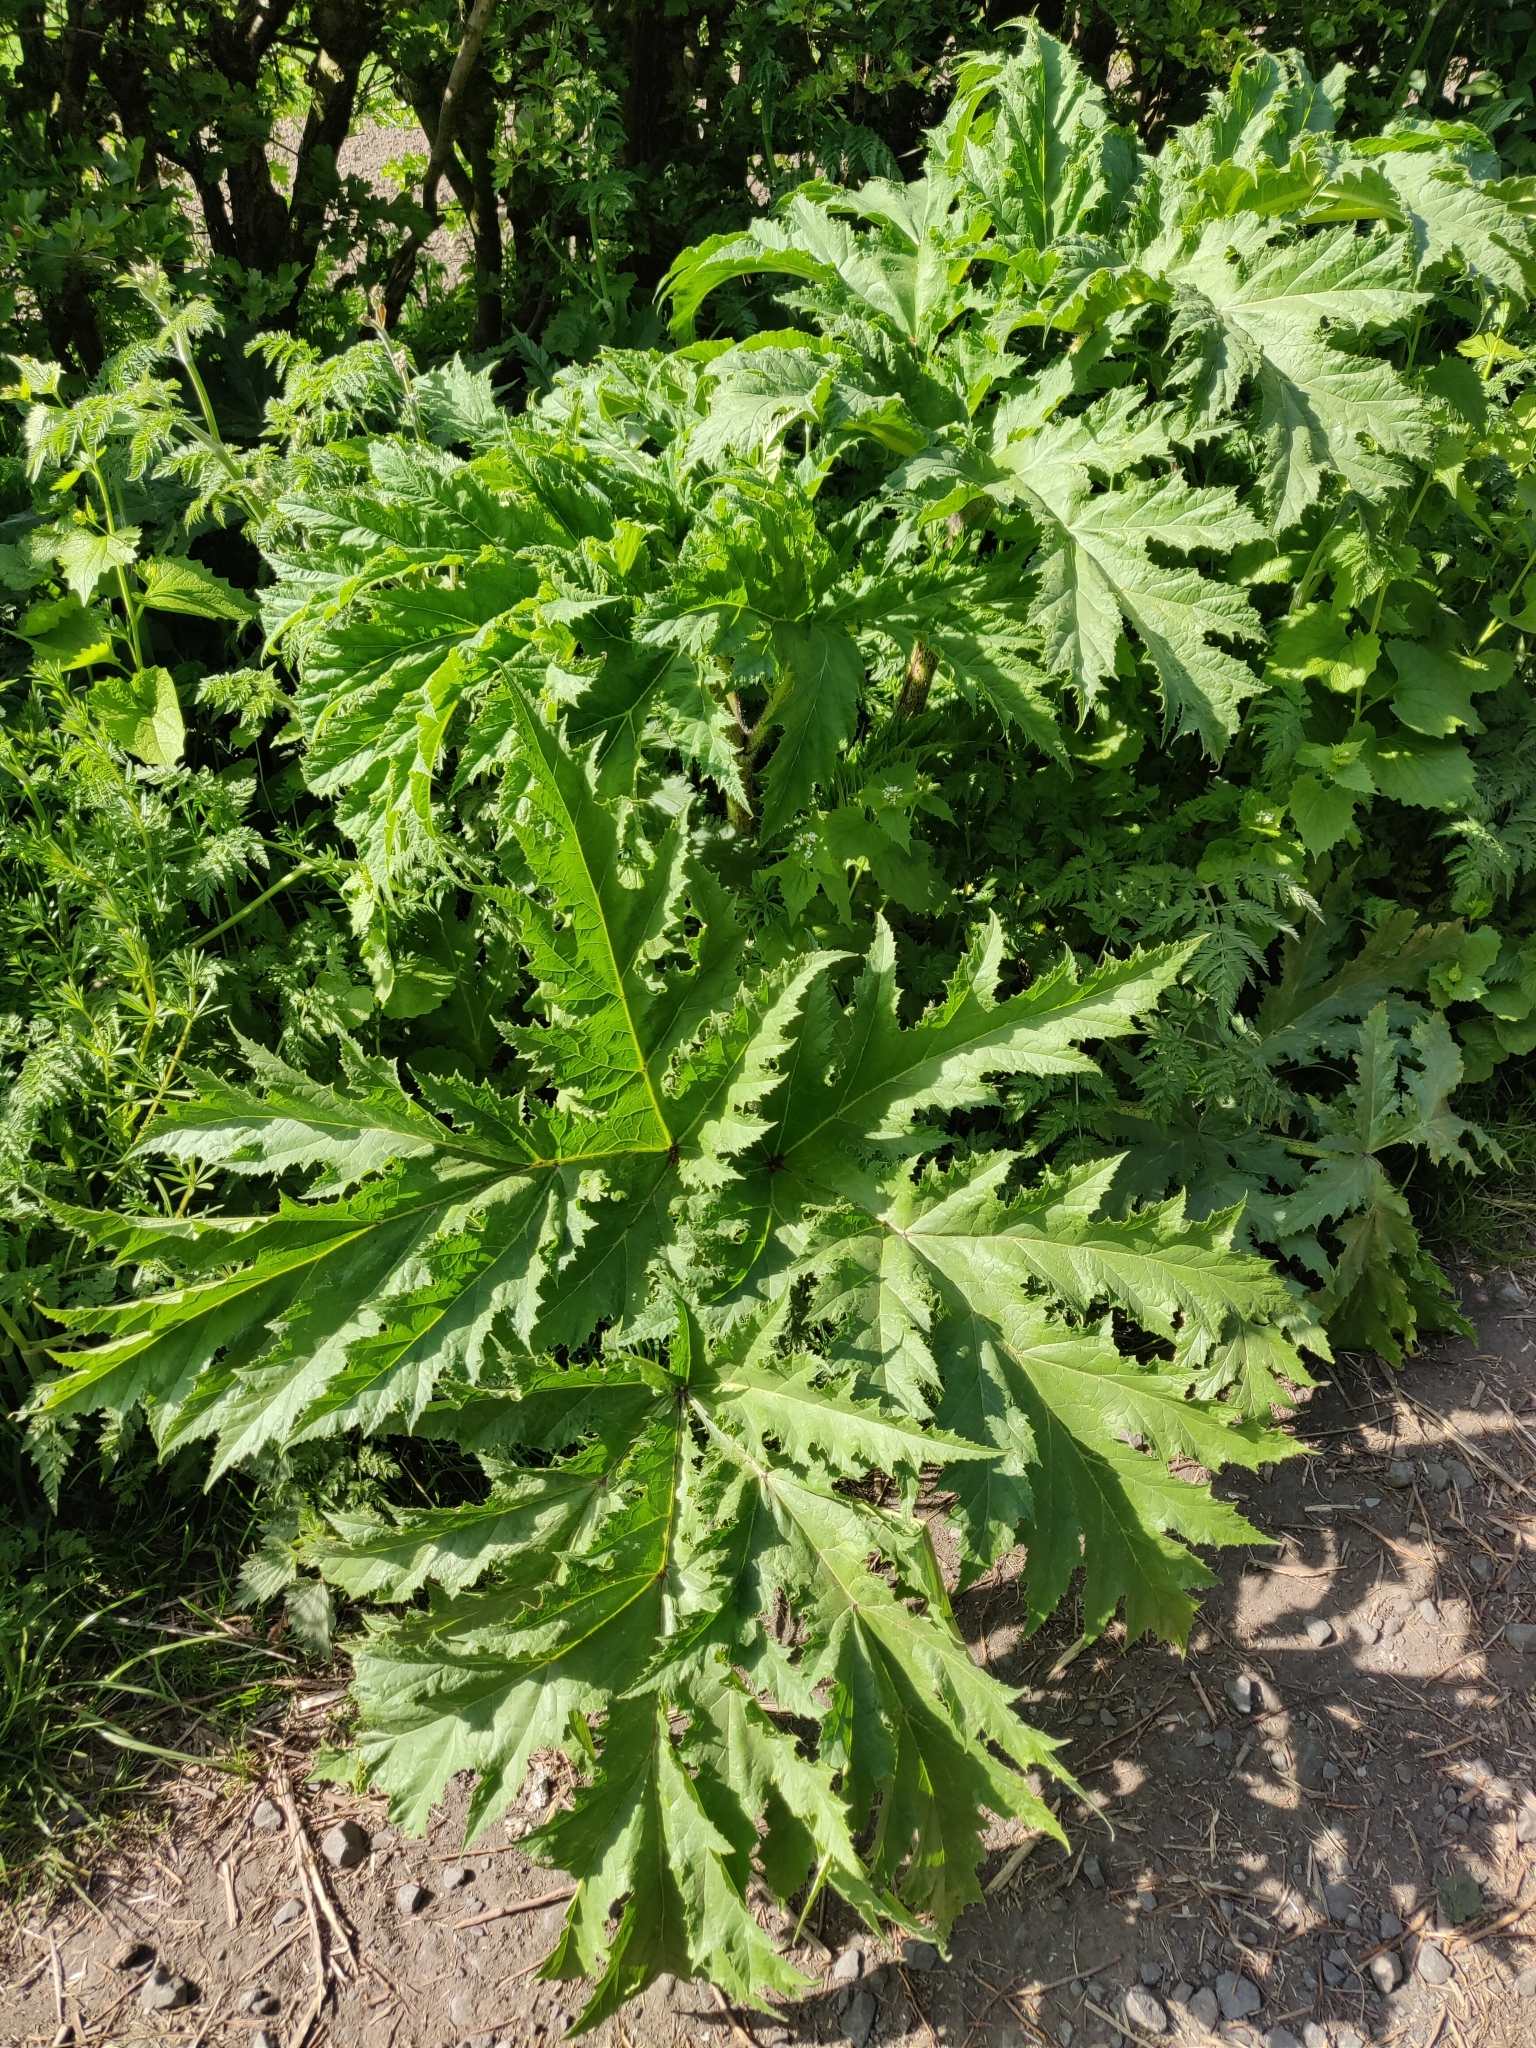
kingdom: Plantae
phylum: Tracheophyta
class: Magnoliopsida
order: Apiales
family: Apiaceae
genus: Heracleum
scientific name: Heracleum mantegazzianum
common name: Giant hogweed
